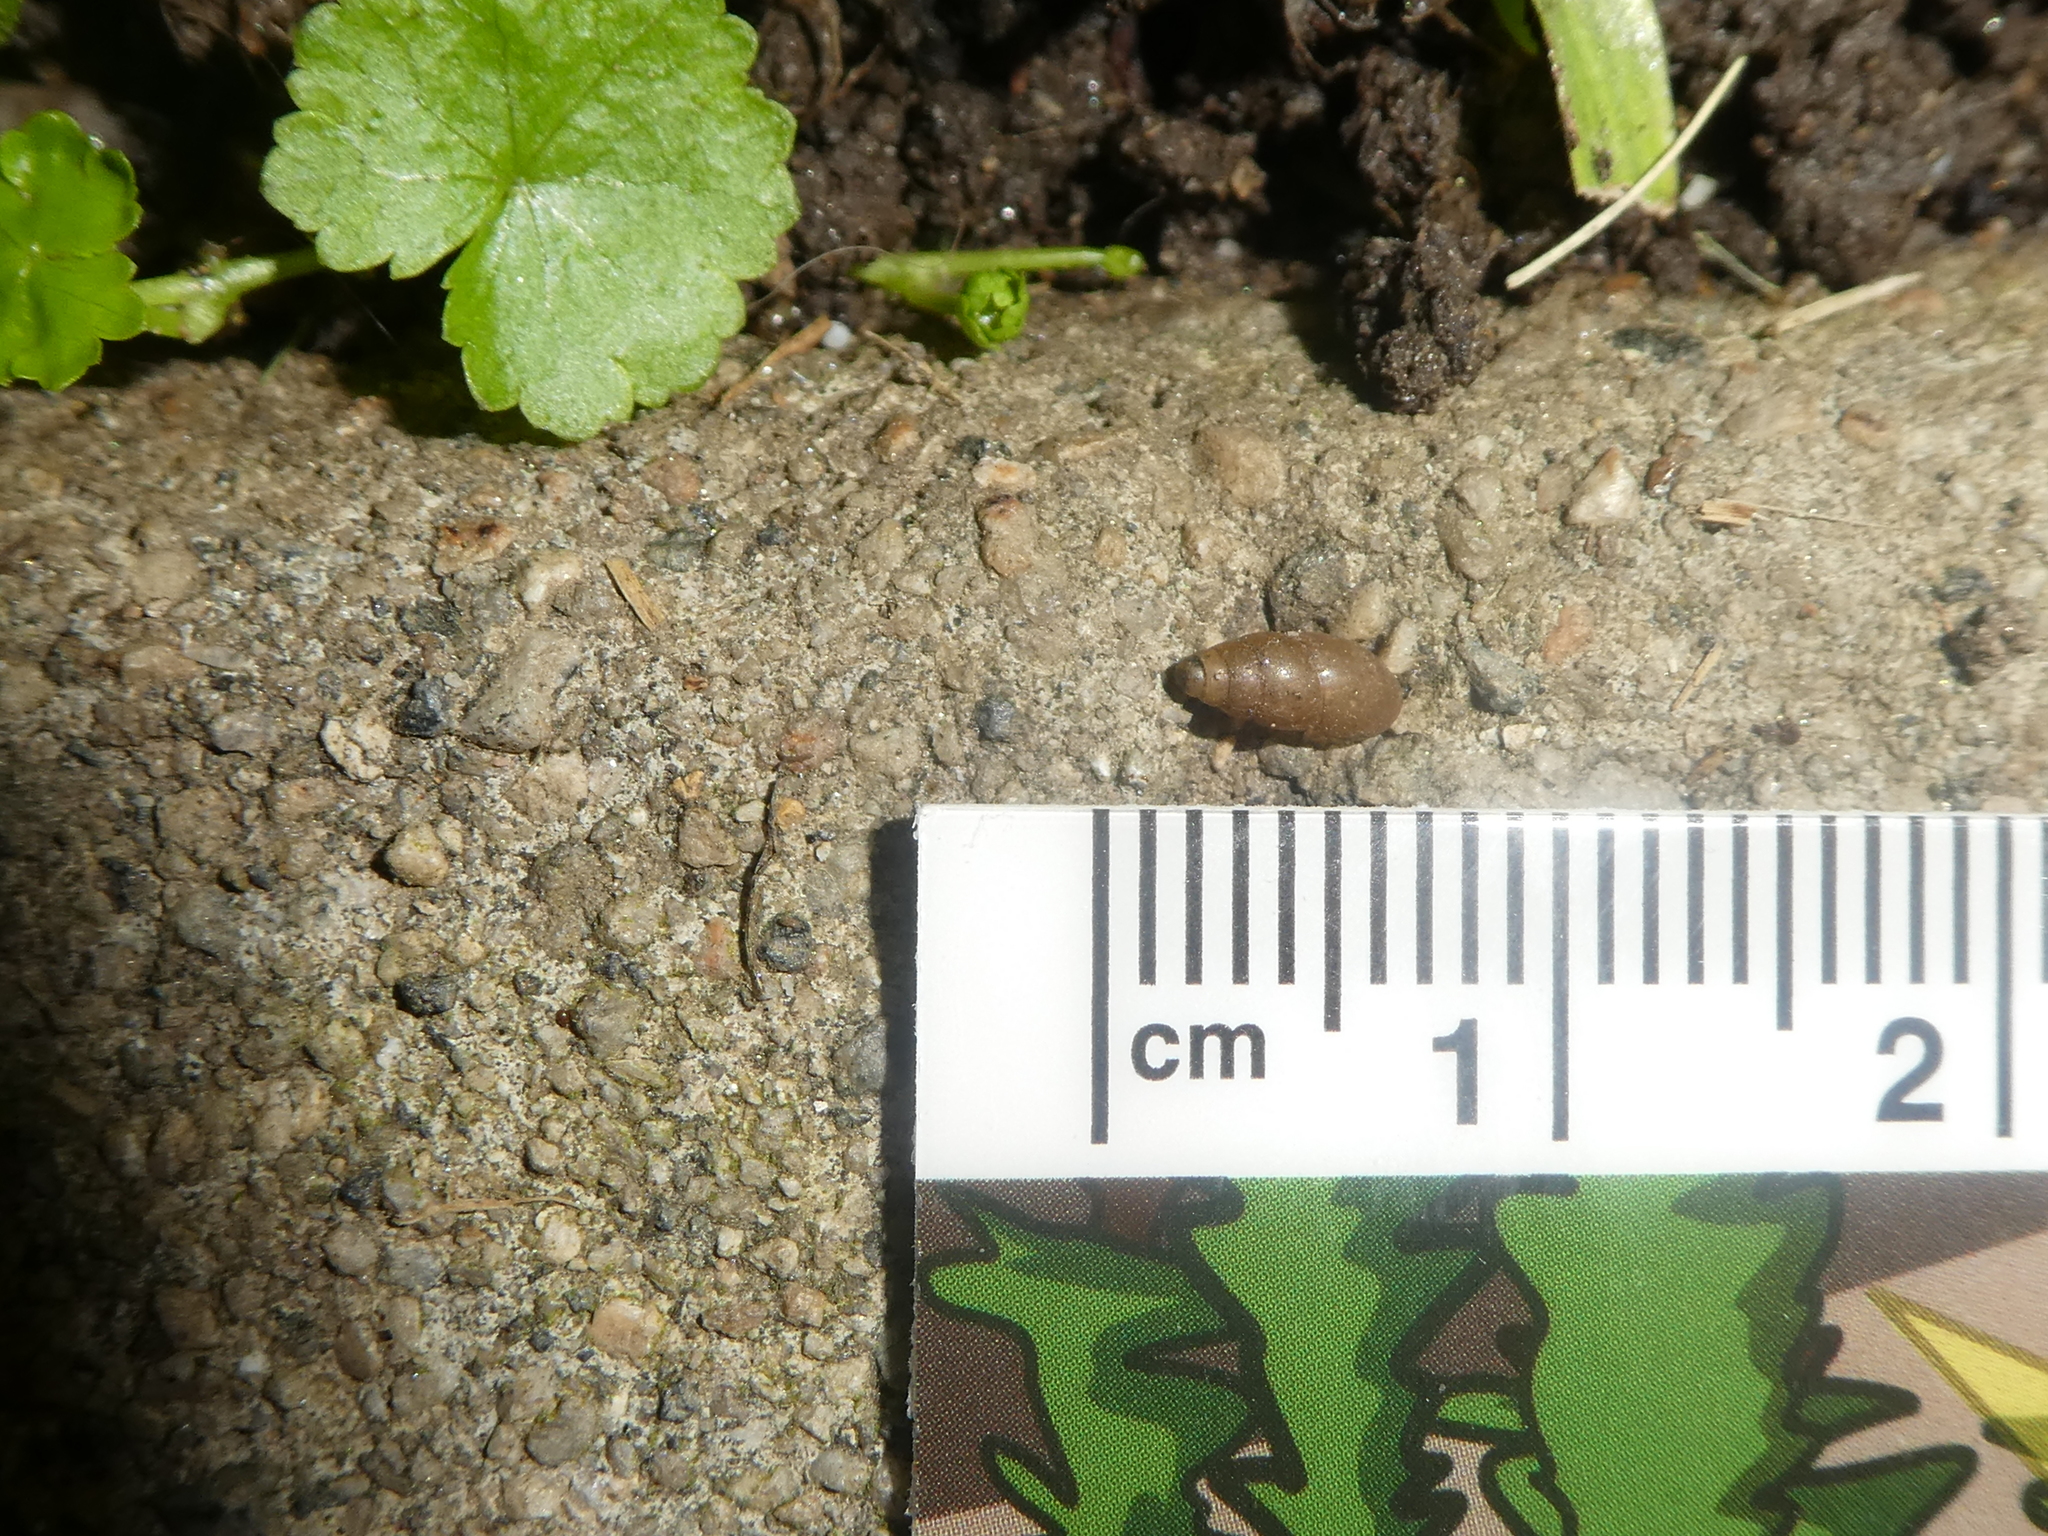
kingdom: Animalia
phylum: Mollusca
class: Gastropoda
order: Stylommatophora
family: Cochlicopidae
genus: Cochlicopa
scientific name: Cochlicopa lubrica
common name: Glossy pillar snail
